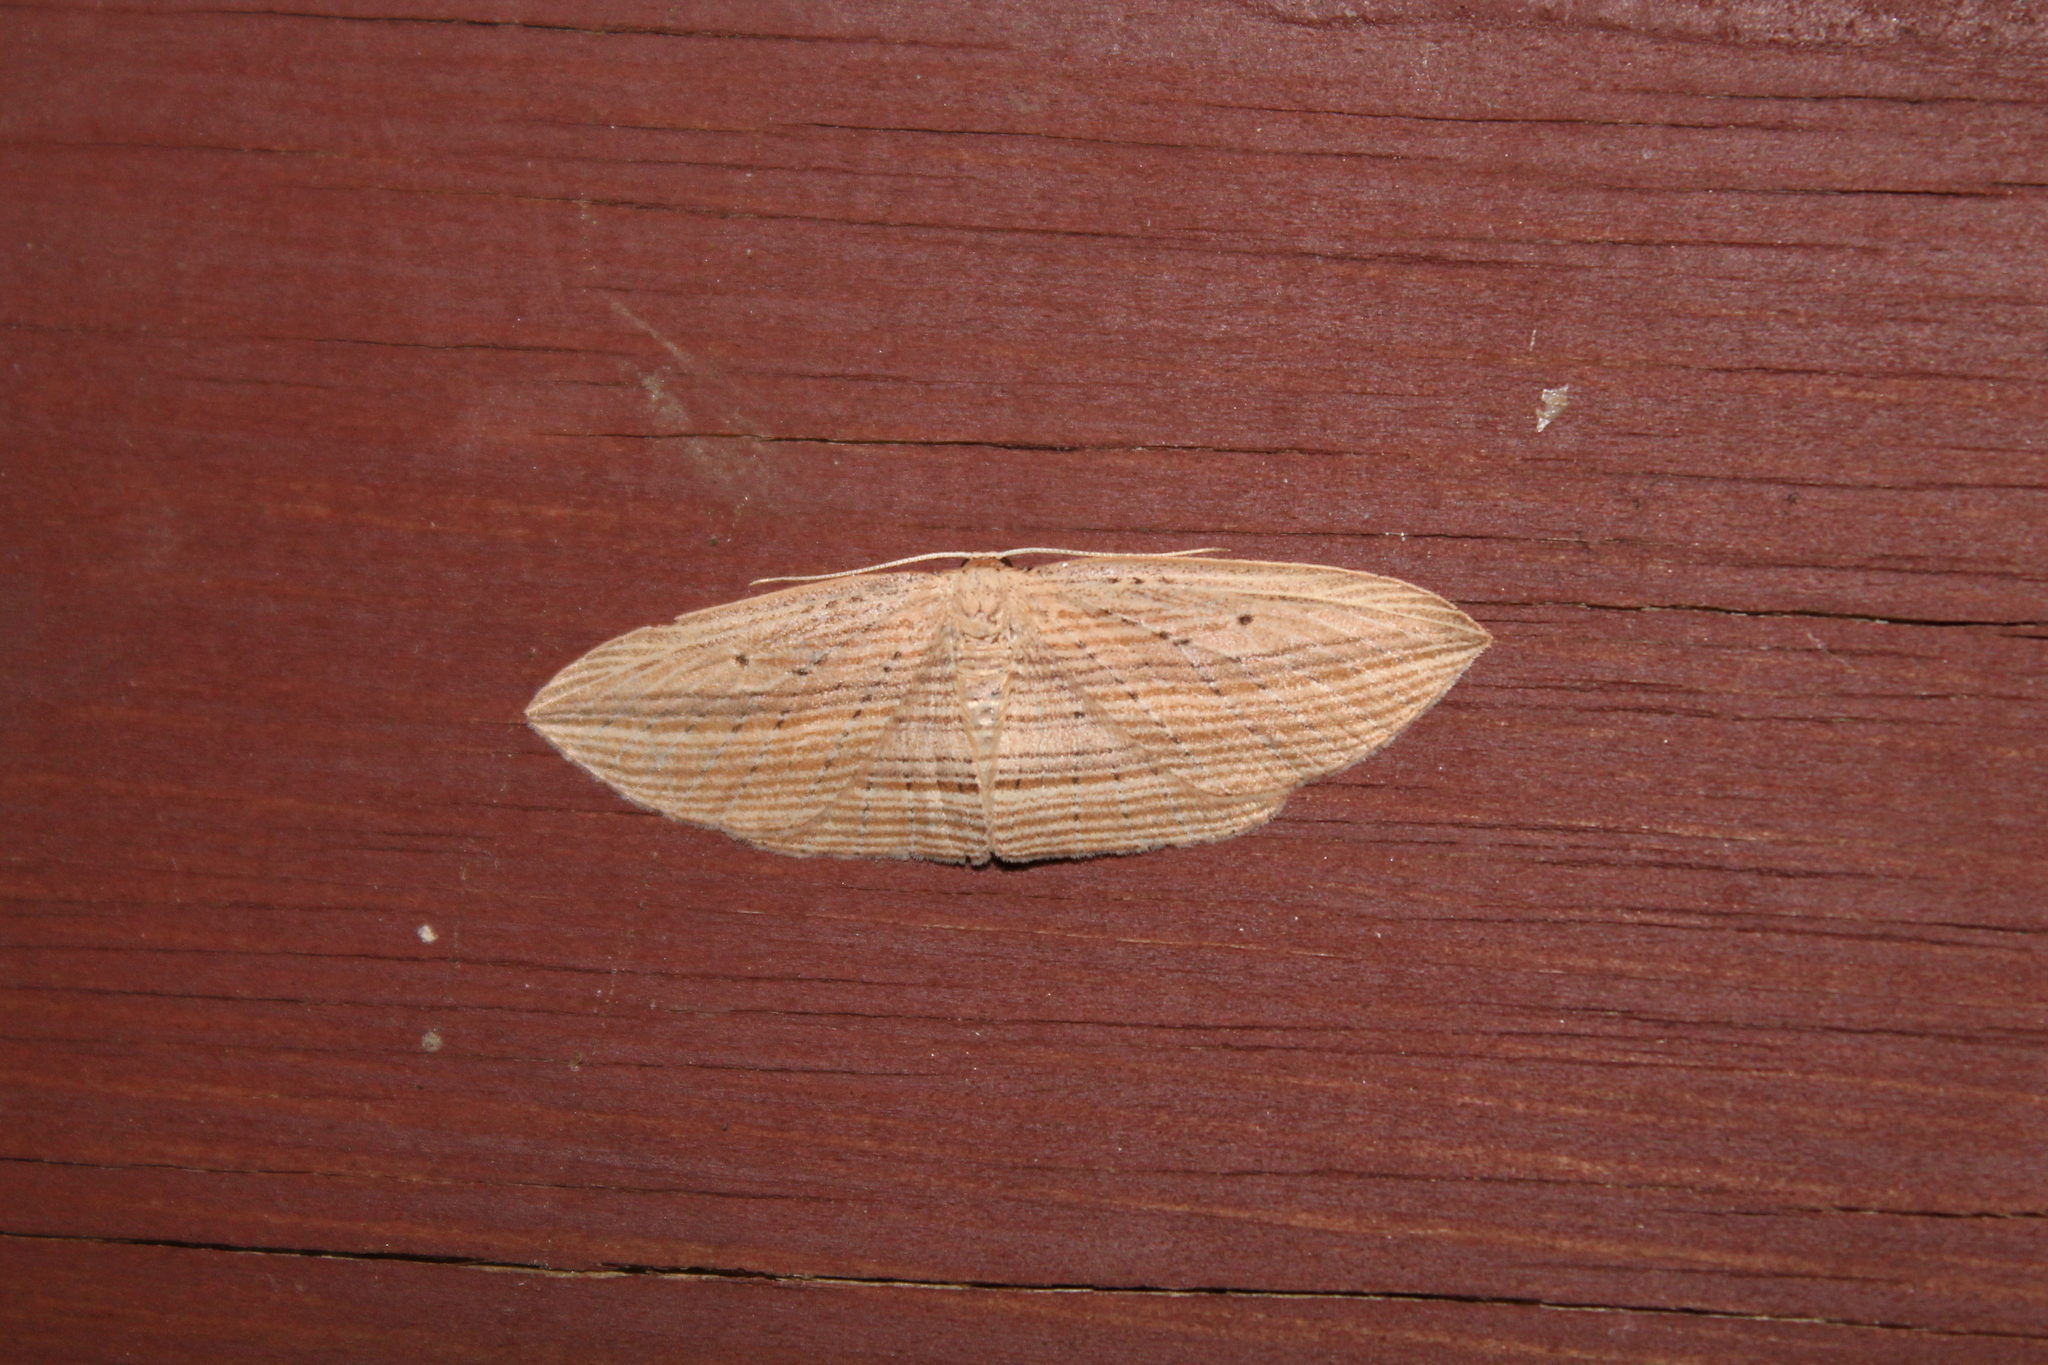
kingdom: Animalia
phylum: Arthropoda
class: Insecta
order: Lepidoptera
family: Geometridae
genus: Epiphryne
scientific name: Epiphryne verriculata
